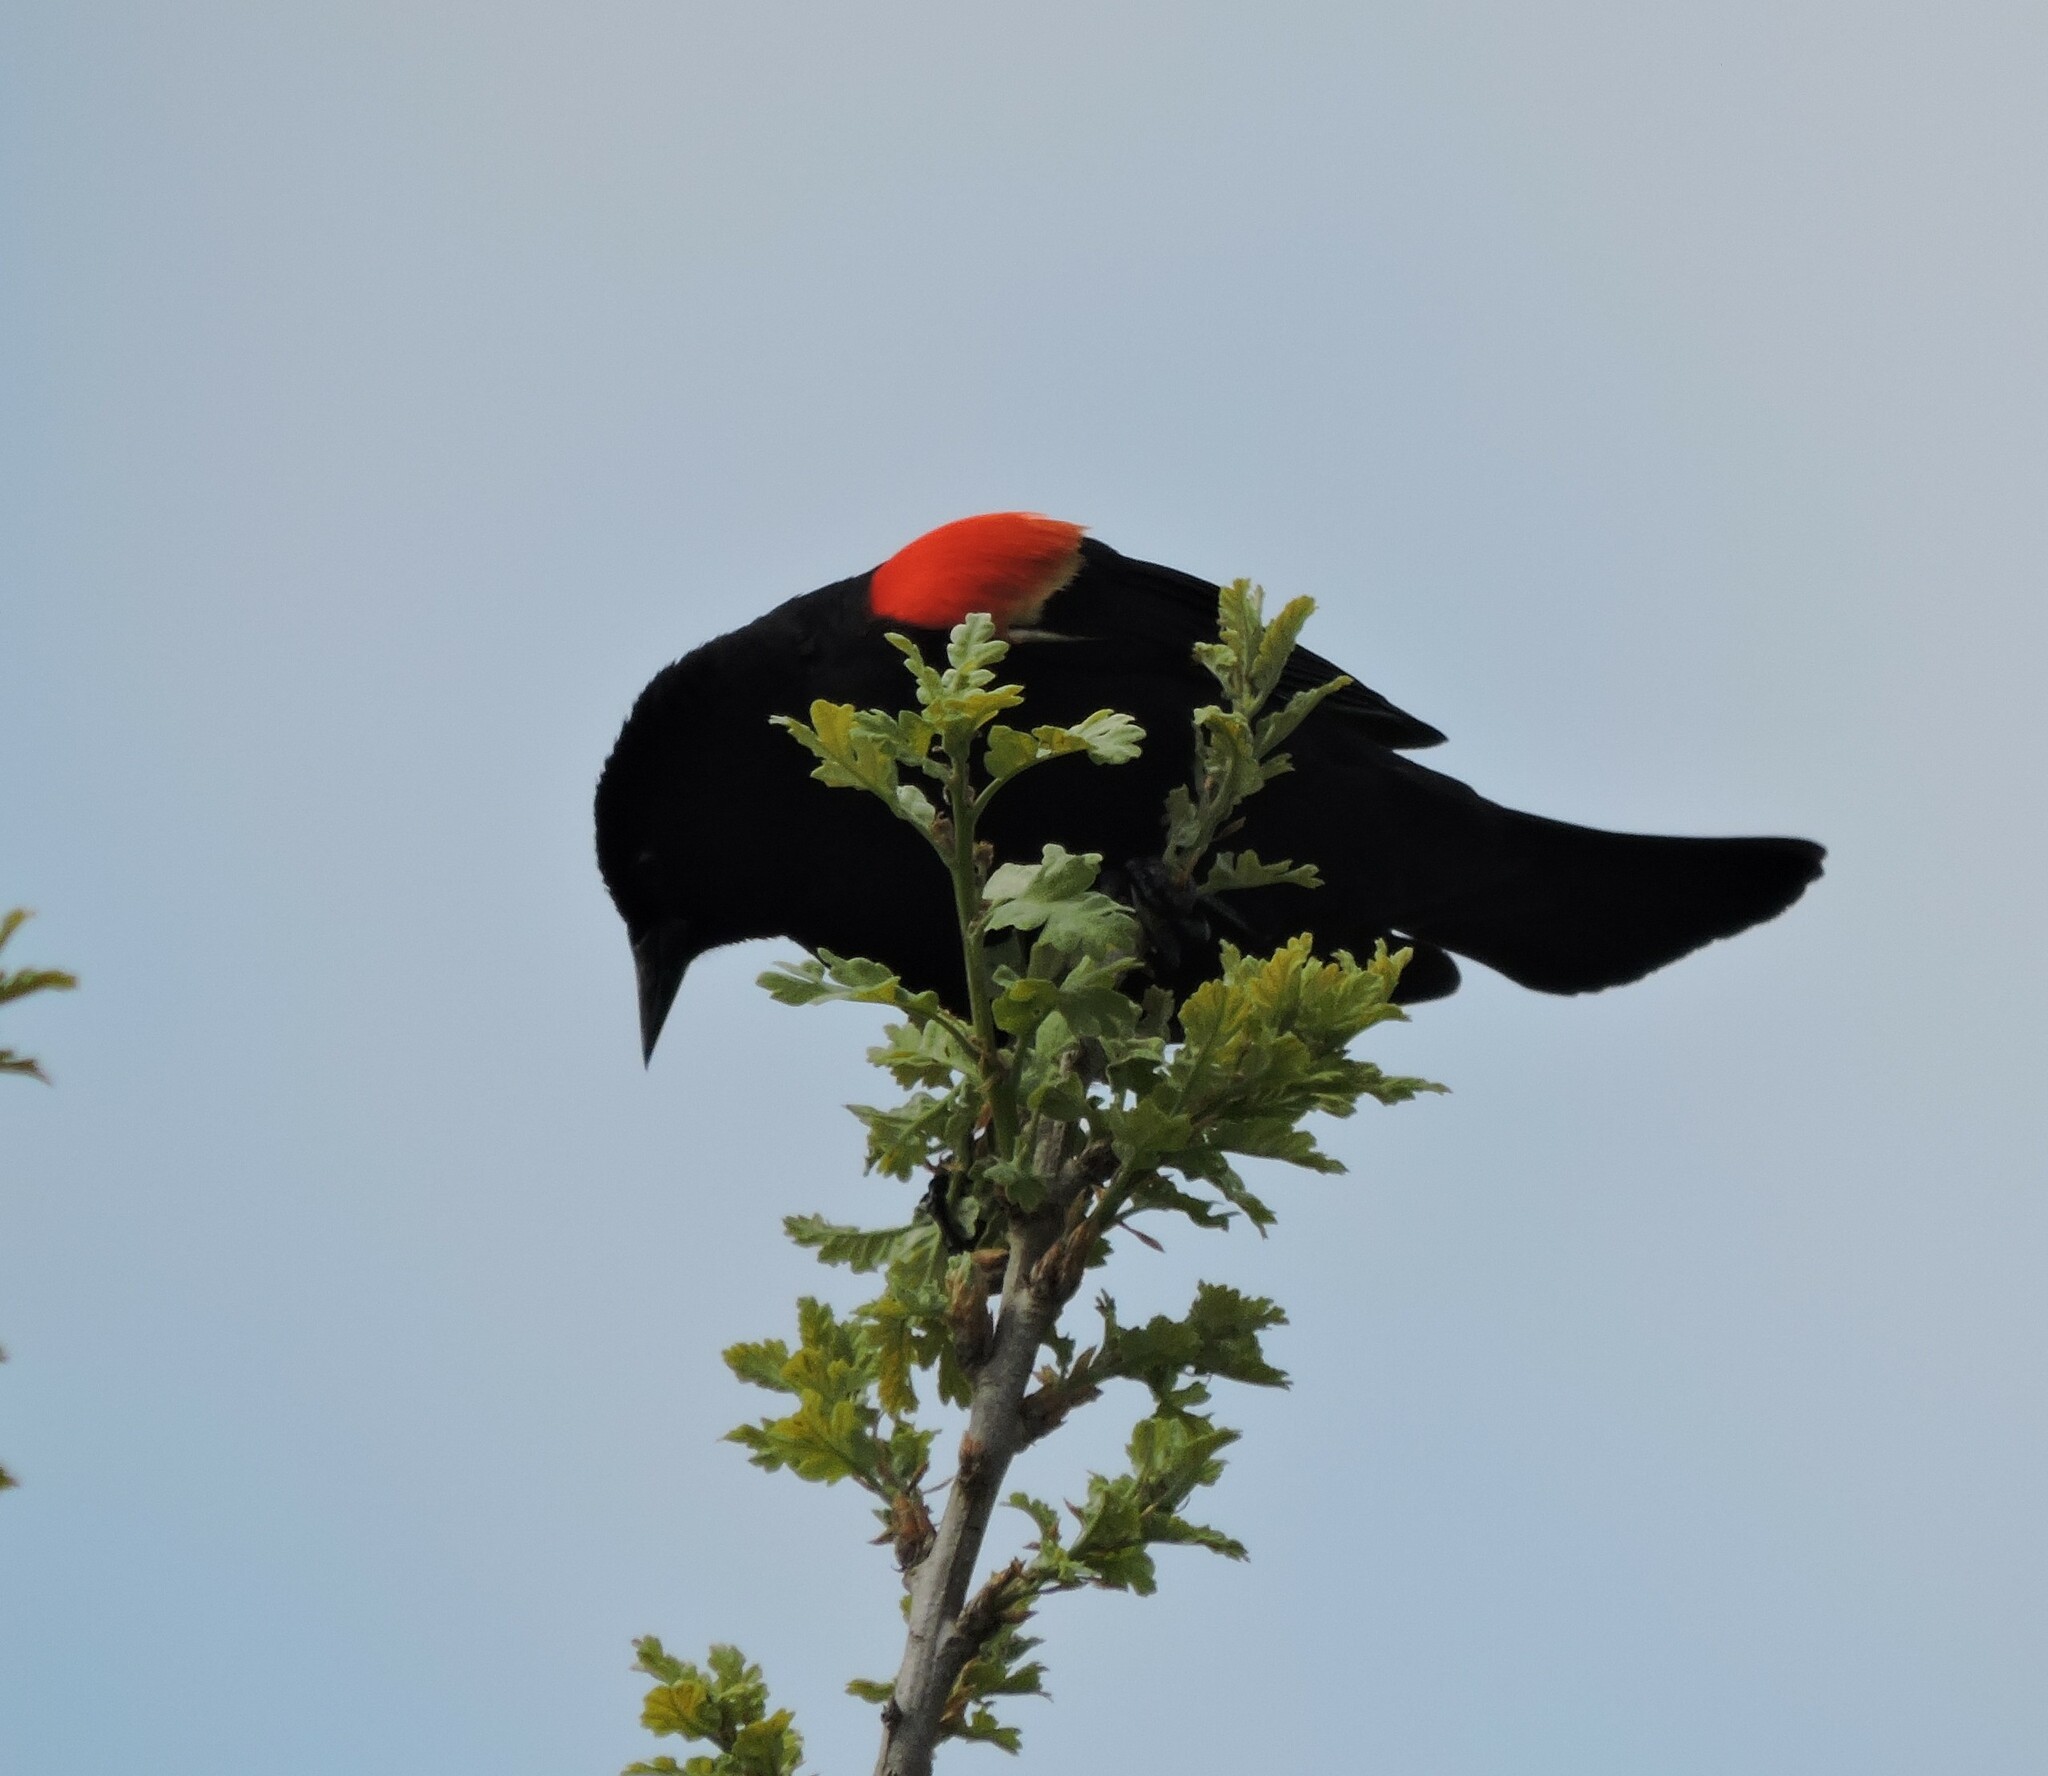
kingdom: Animalia
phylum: Chordata
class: Aves
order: Passeriformes
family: Icteridae
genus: Agelaius
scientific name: Agelaius phoeniceus
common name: Red-winged blackbird
